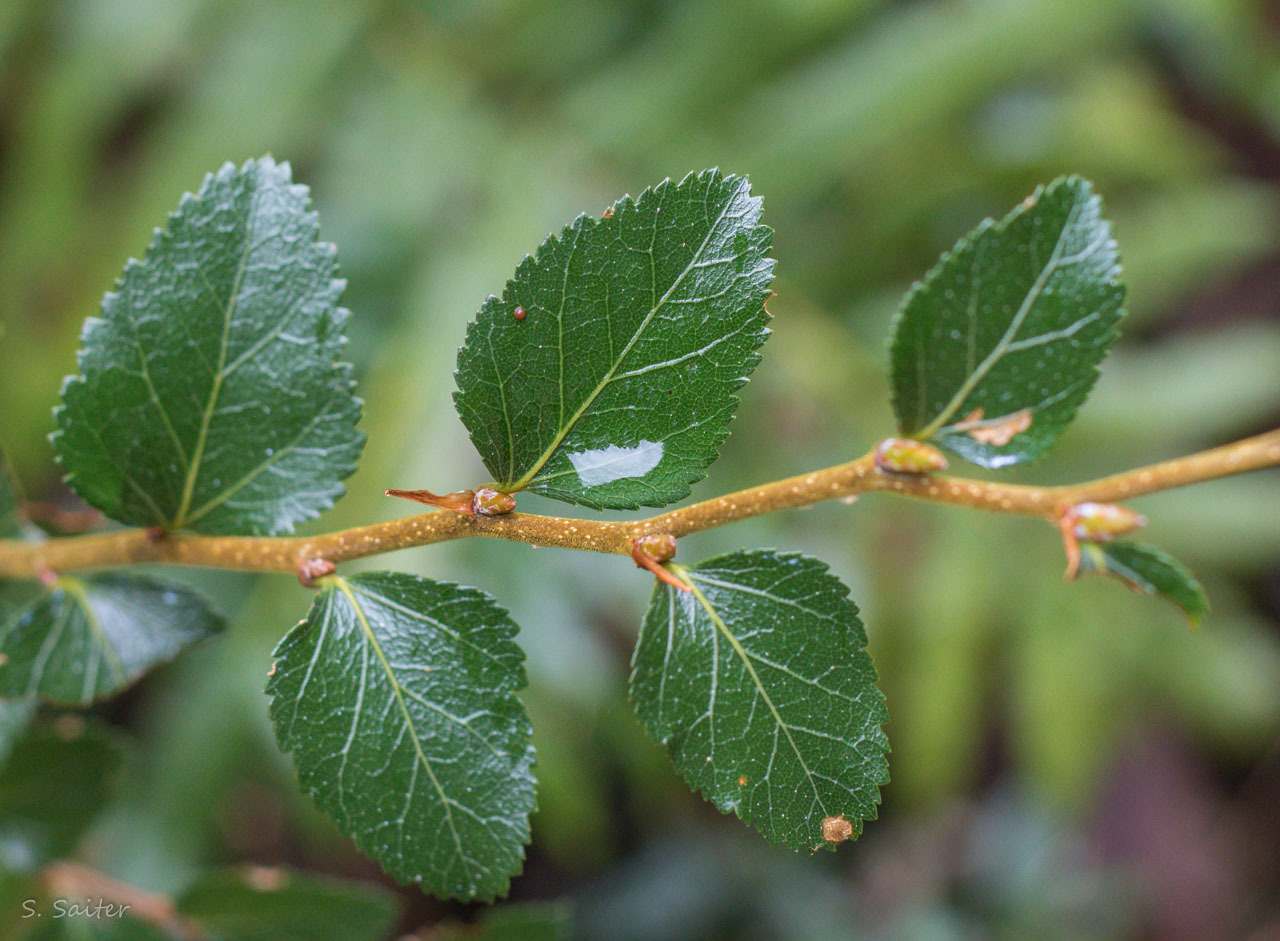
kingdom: Plantae
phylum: Tracheophyta
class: Magnoliopsida
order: Fagales
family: Nothofagaceae
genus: Nothofagus
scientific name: Nothofagus nitida
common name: Chiloé's coigue
